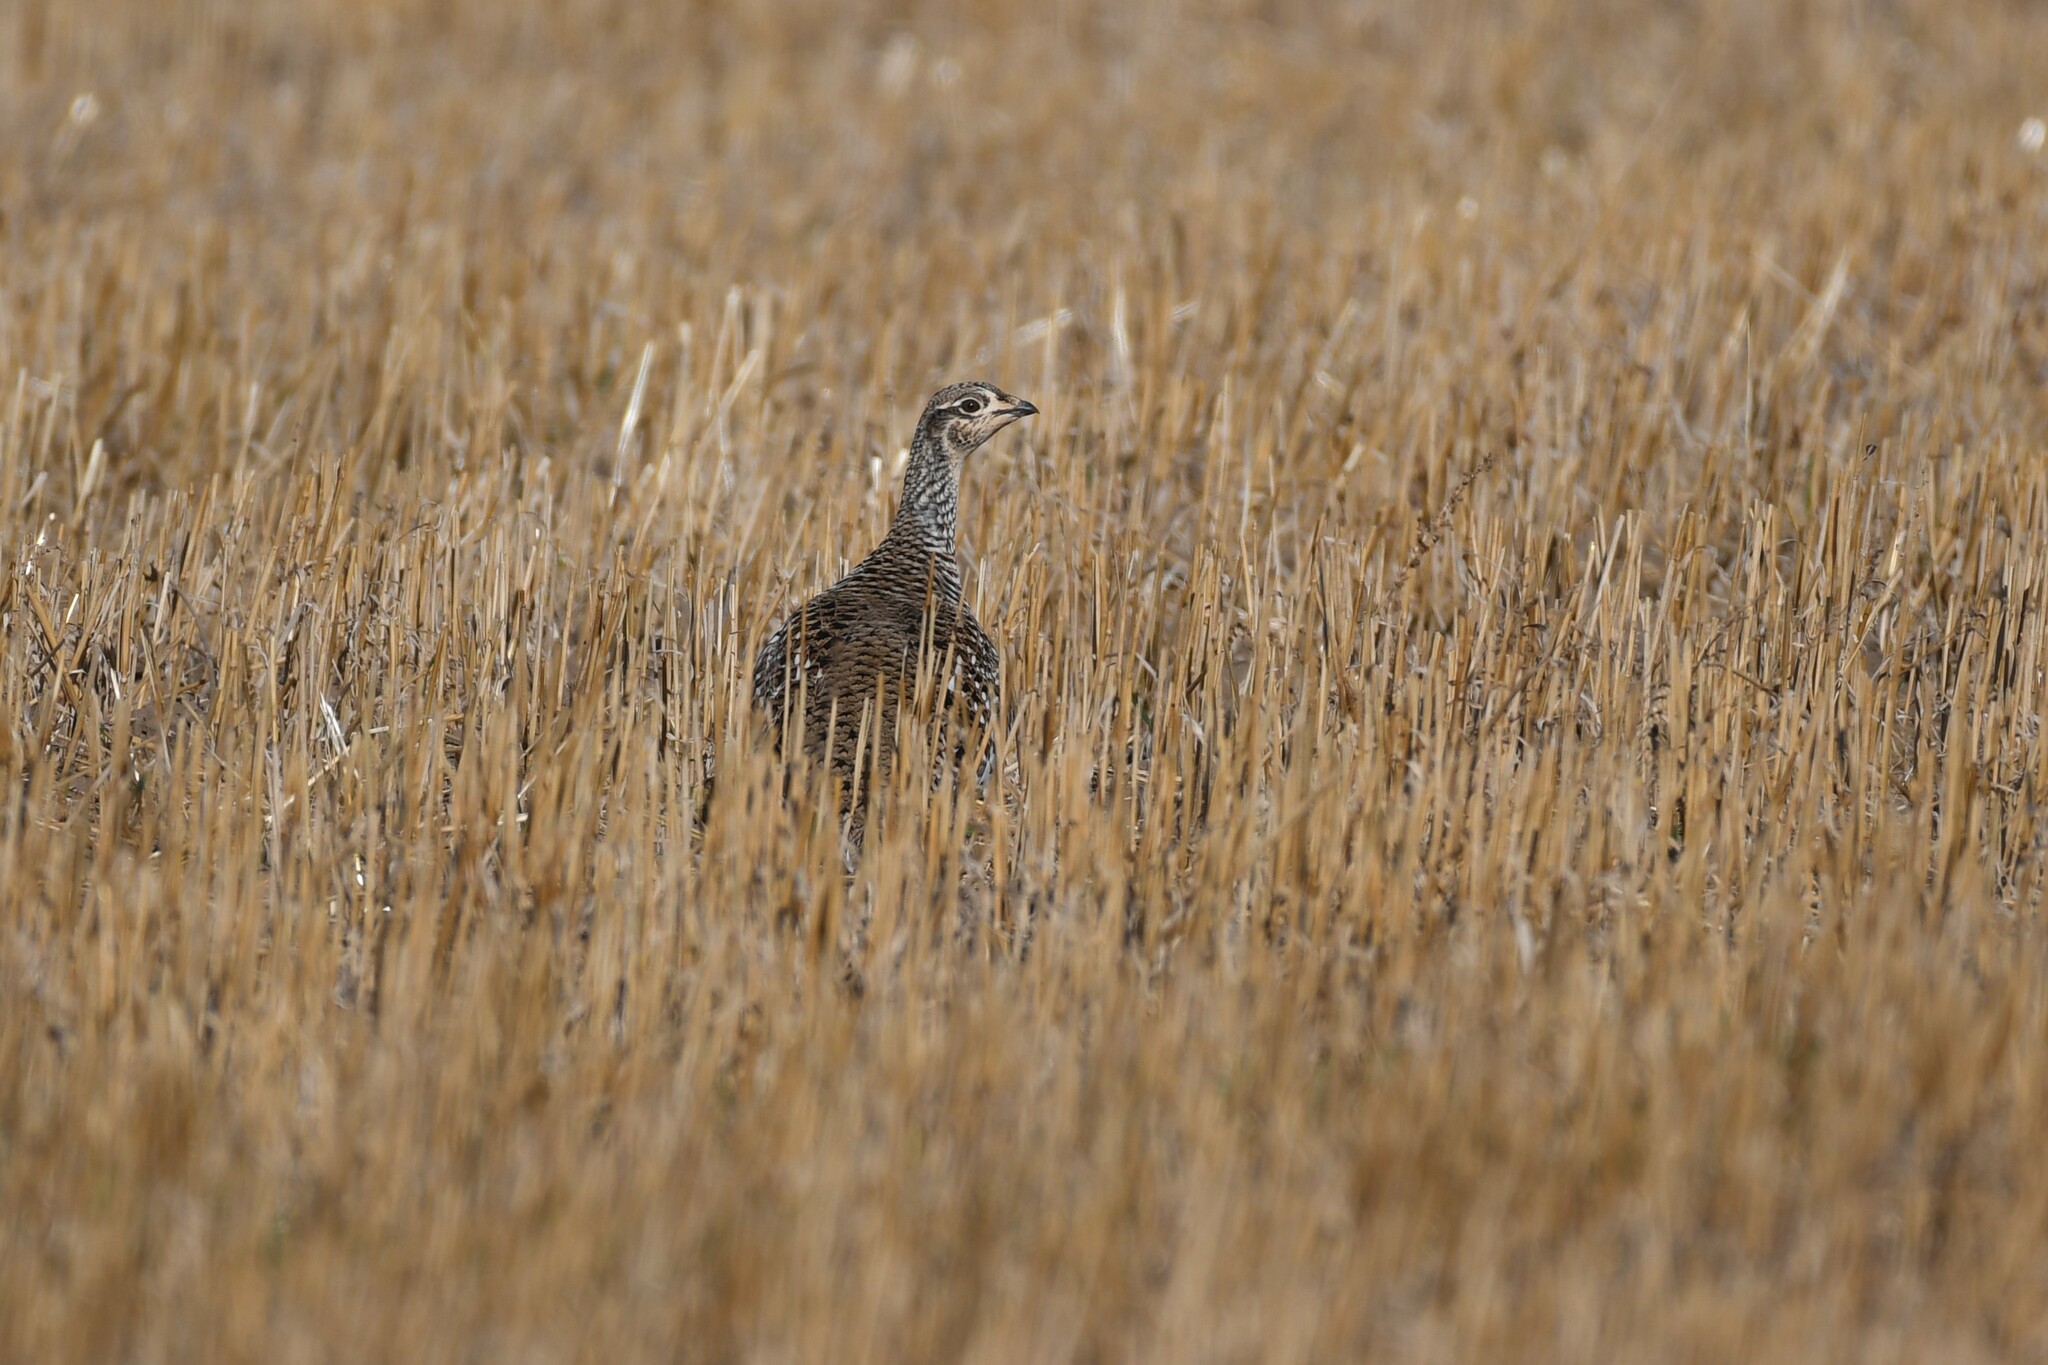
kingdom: Animalia
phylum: Chordata
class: Aves
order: Galliformes
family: Phasianidae
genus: Tympanuchus
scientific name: Tympanuchus phasianellus
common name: Sharp-tailed grouse
